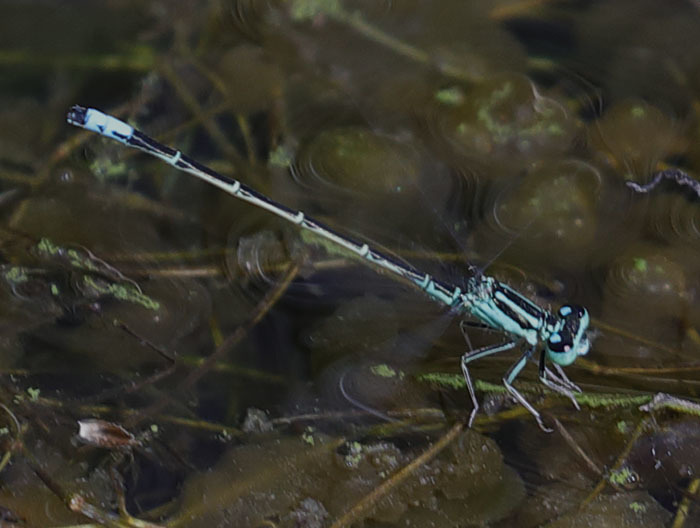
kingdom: Animalia
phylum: Arthropoda
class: Insecta
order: Odonata
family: Coenagrionidae
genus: Ischnura
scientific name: Ischnura perparva
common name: Western forktail
